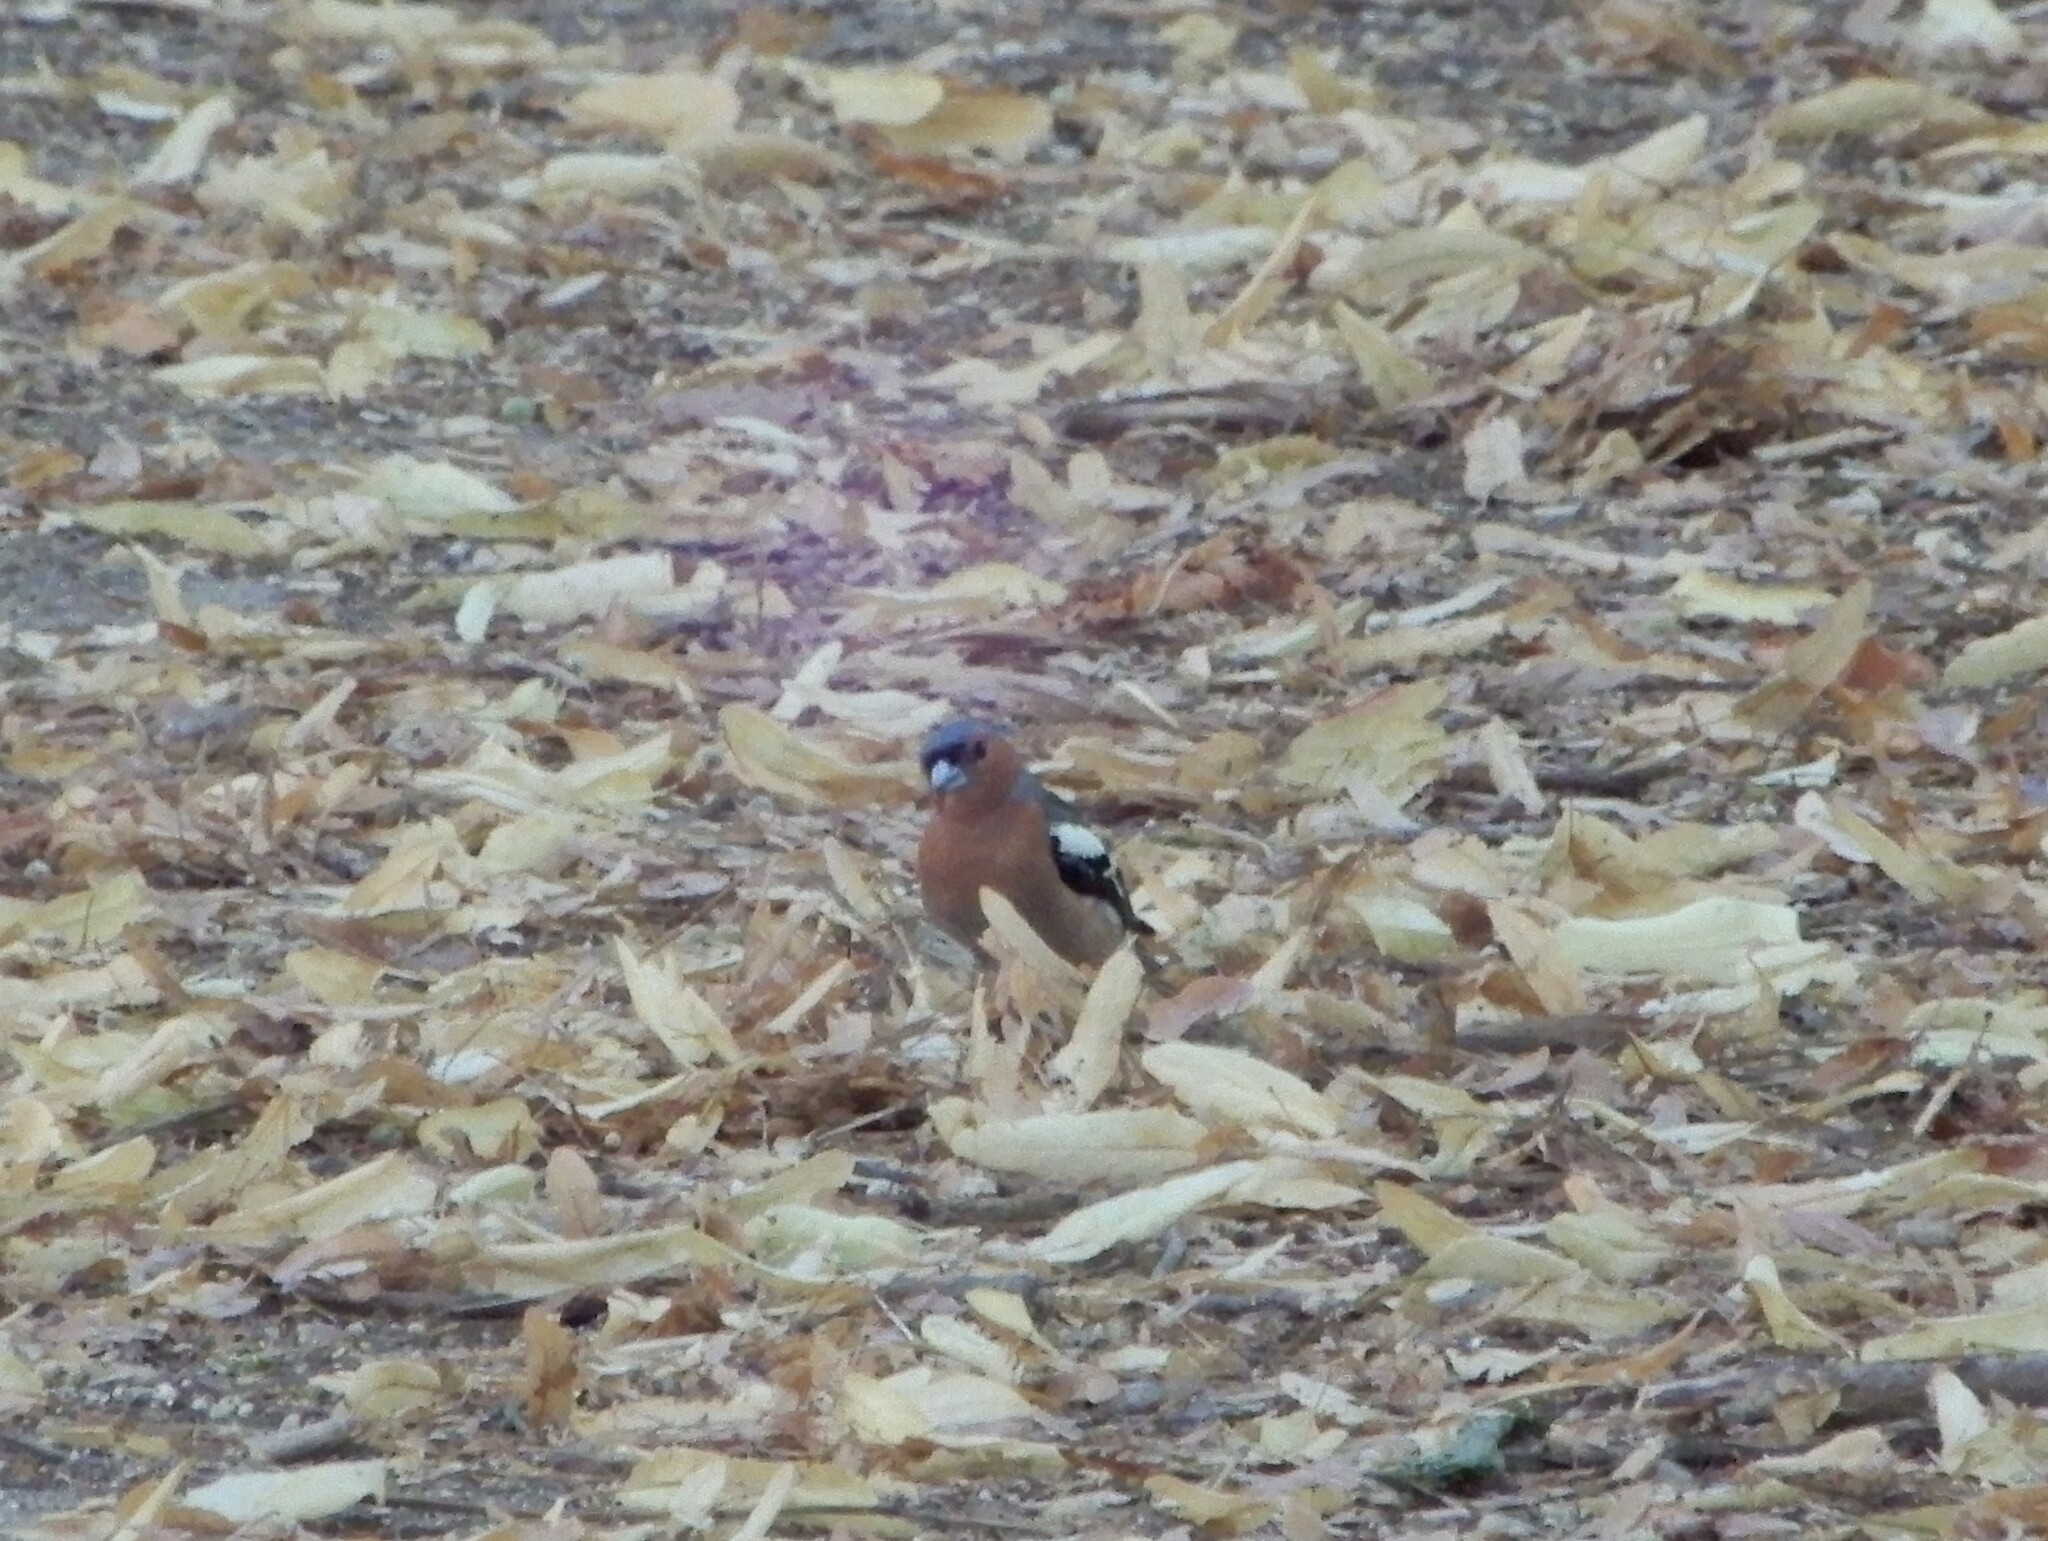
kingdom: Animalia
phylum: Chordata
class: Aves
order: Passeriformes
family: Fringillidae
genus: Fringilla
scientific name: Fringilla coelebs
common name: Common chaffinch
